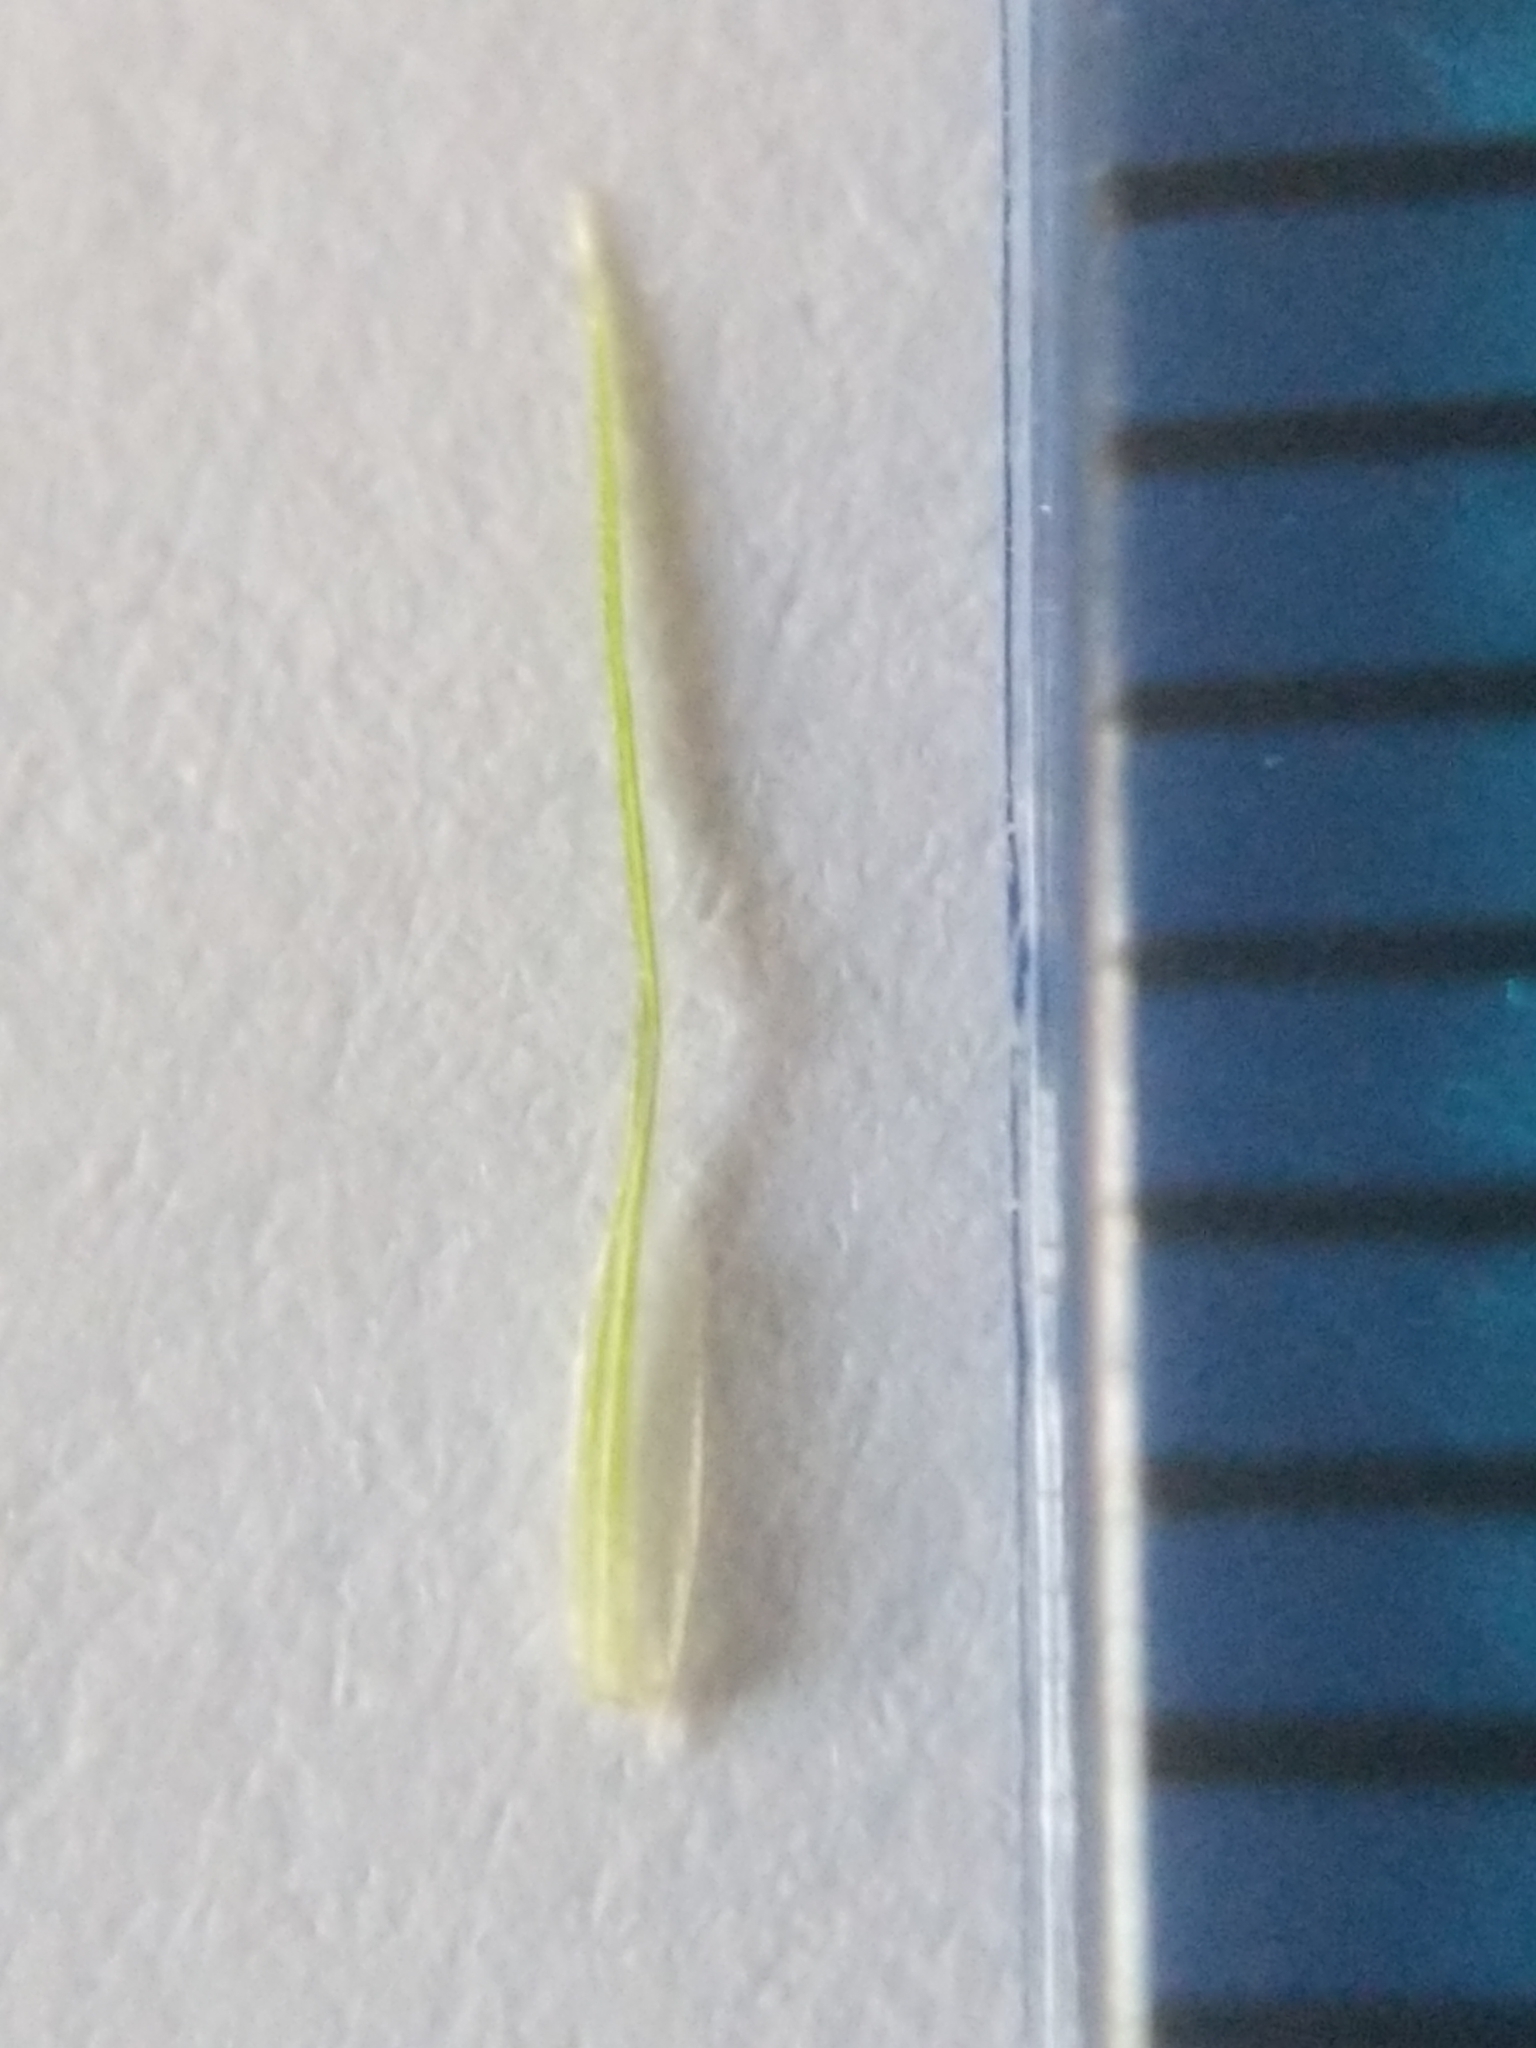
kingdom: Plantae
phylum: Tracheophyta
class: Liliopsida
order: Poales
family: Cyperaceae
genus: Carex
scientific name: Carex lurida
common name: Sallow sedge
